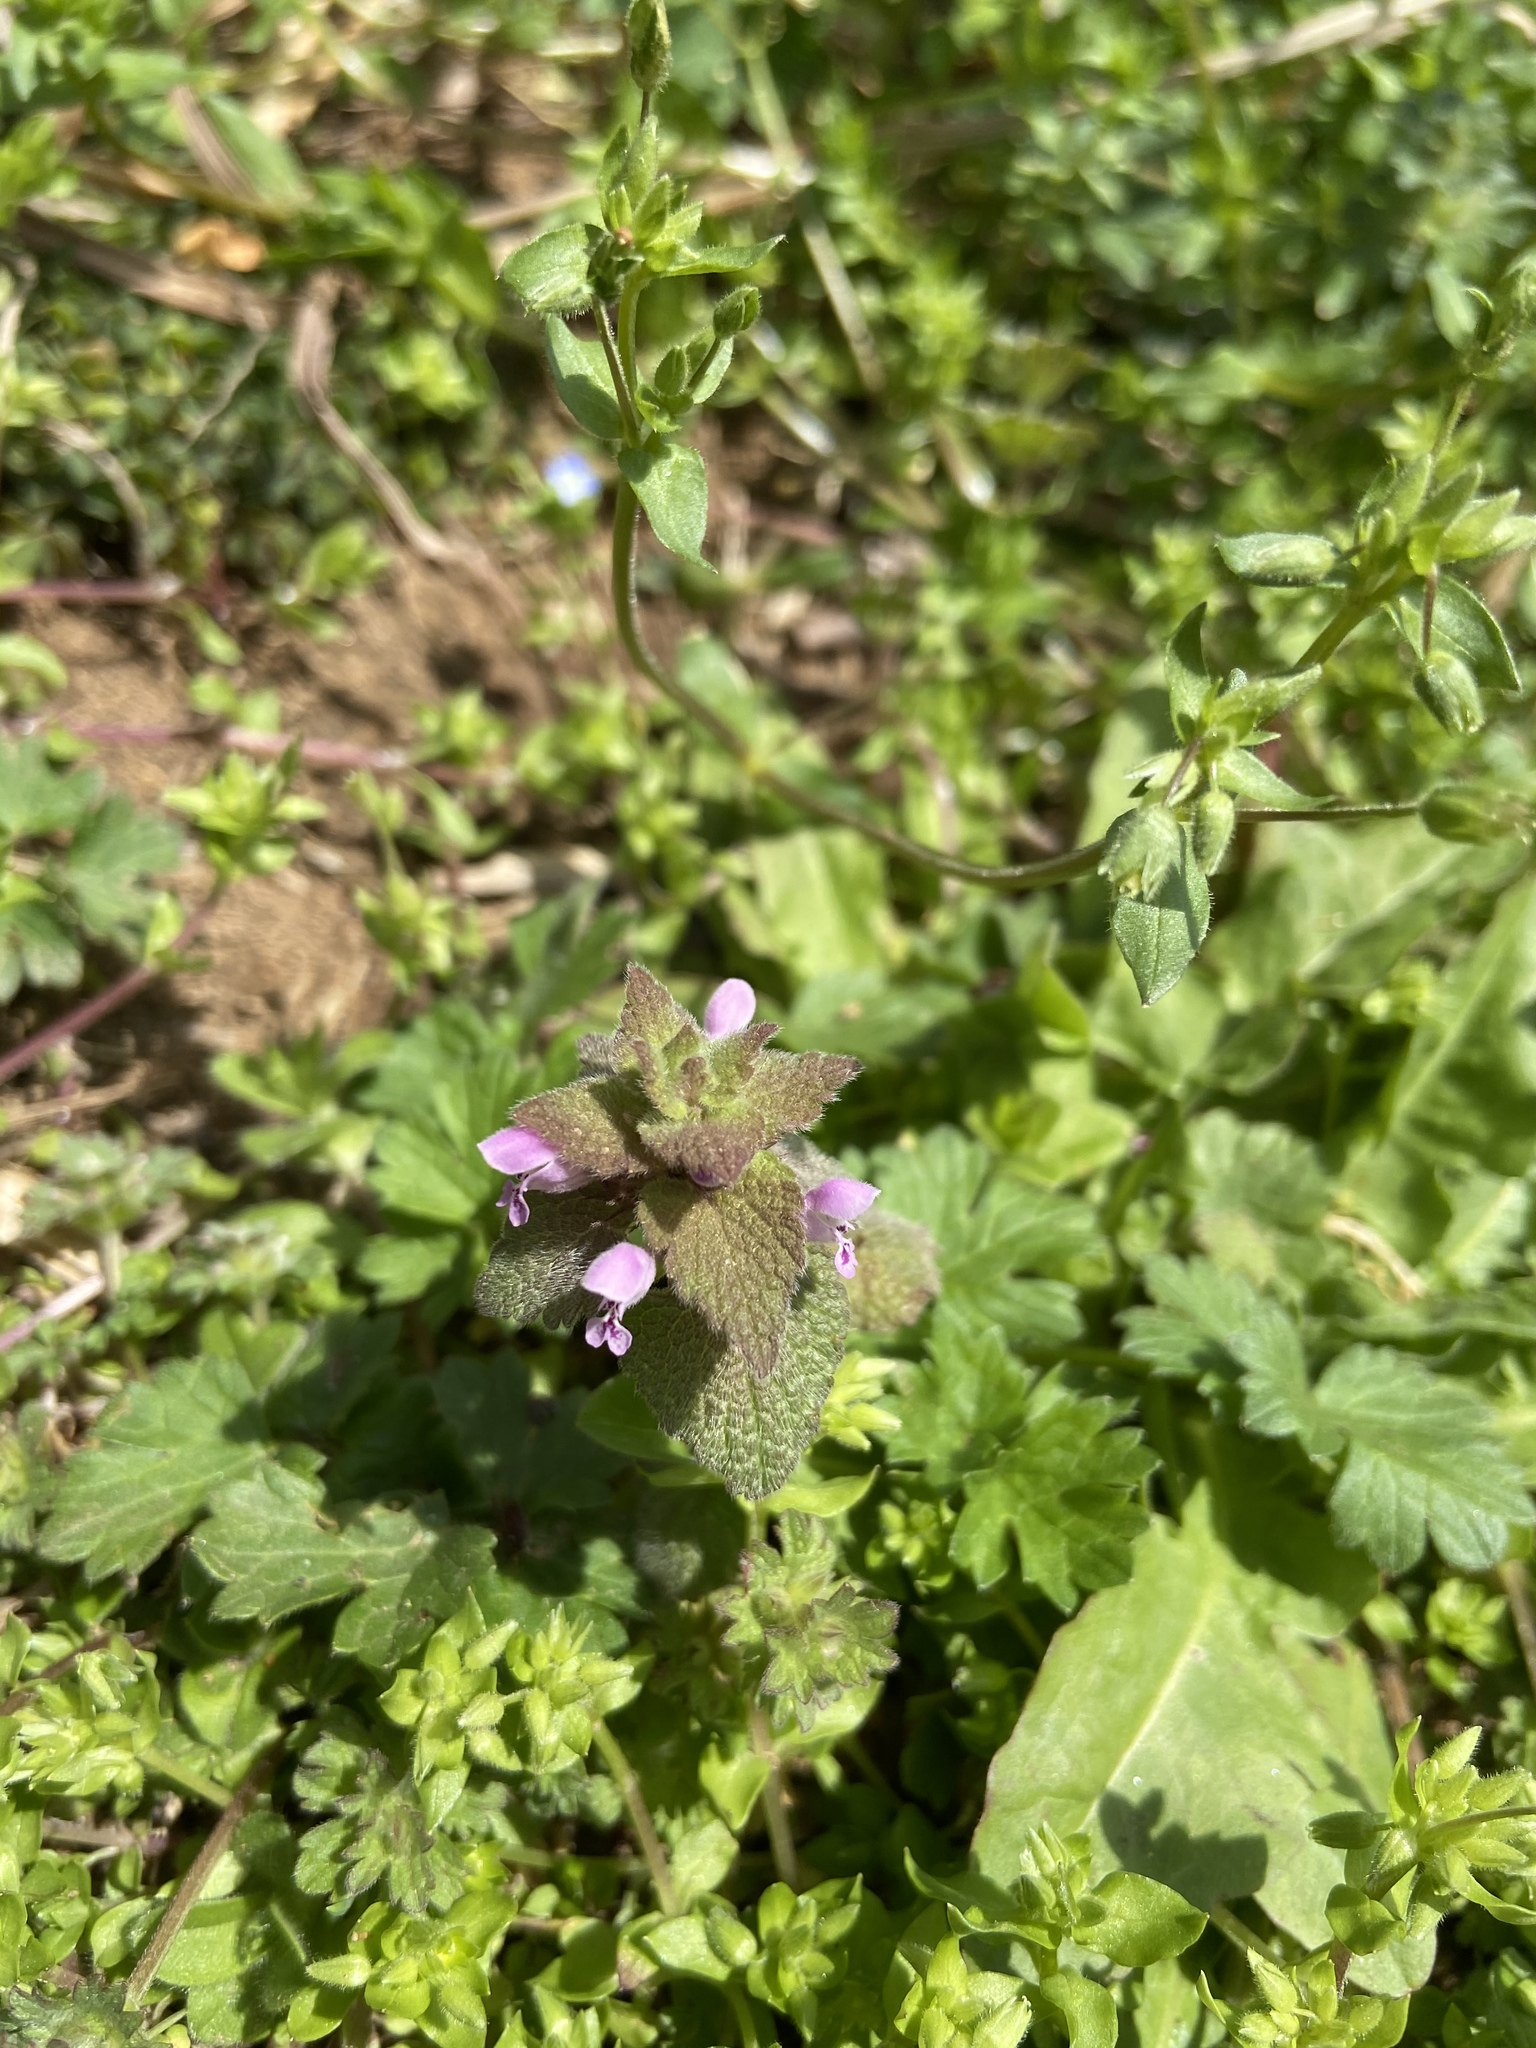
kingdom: Plantae
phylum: Tracheophyta
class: Magnoliopsida
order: Lamiales
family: Lamiaceae
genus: Lamium
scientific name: Lamium purpureum
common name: Red dead-nettle
